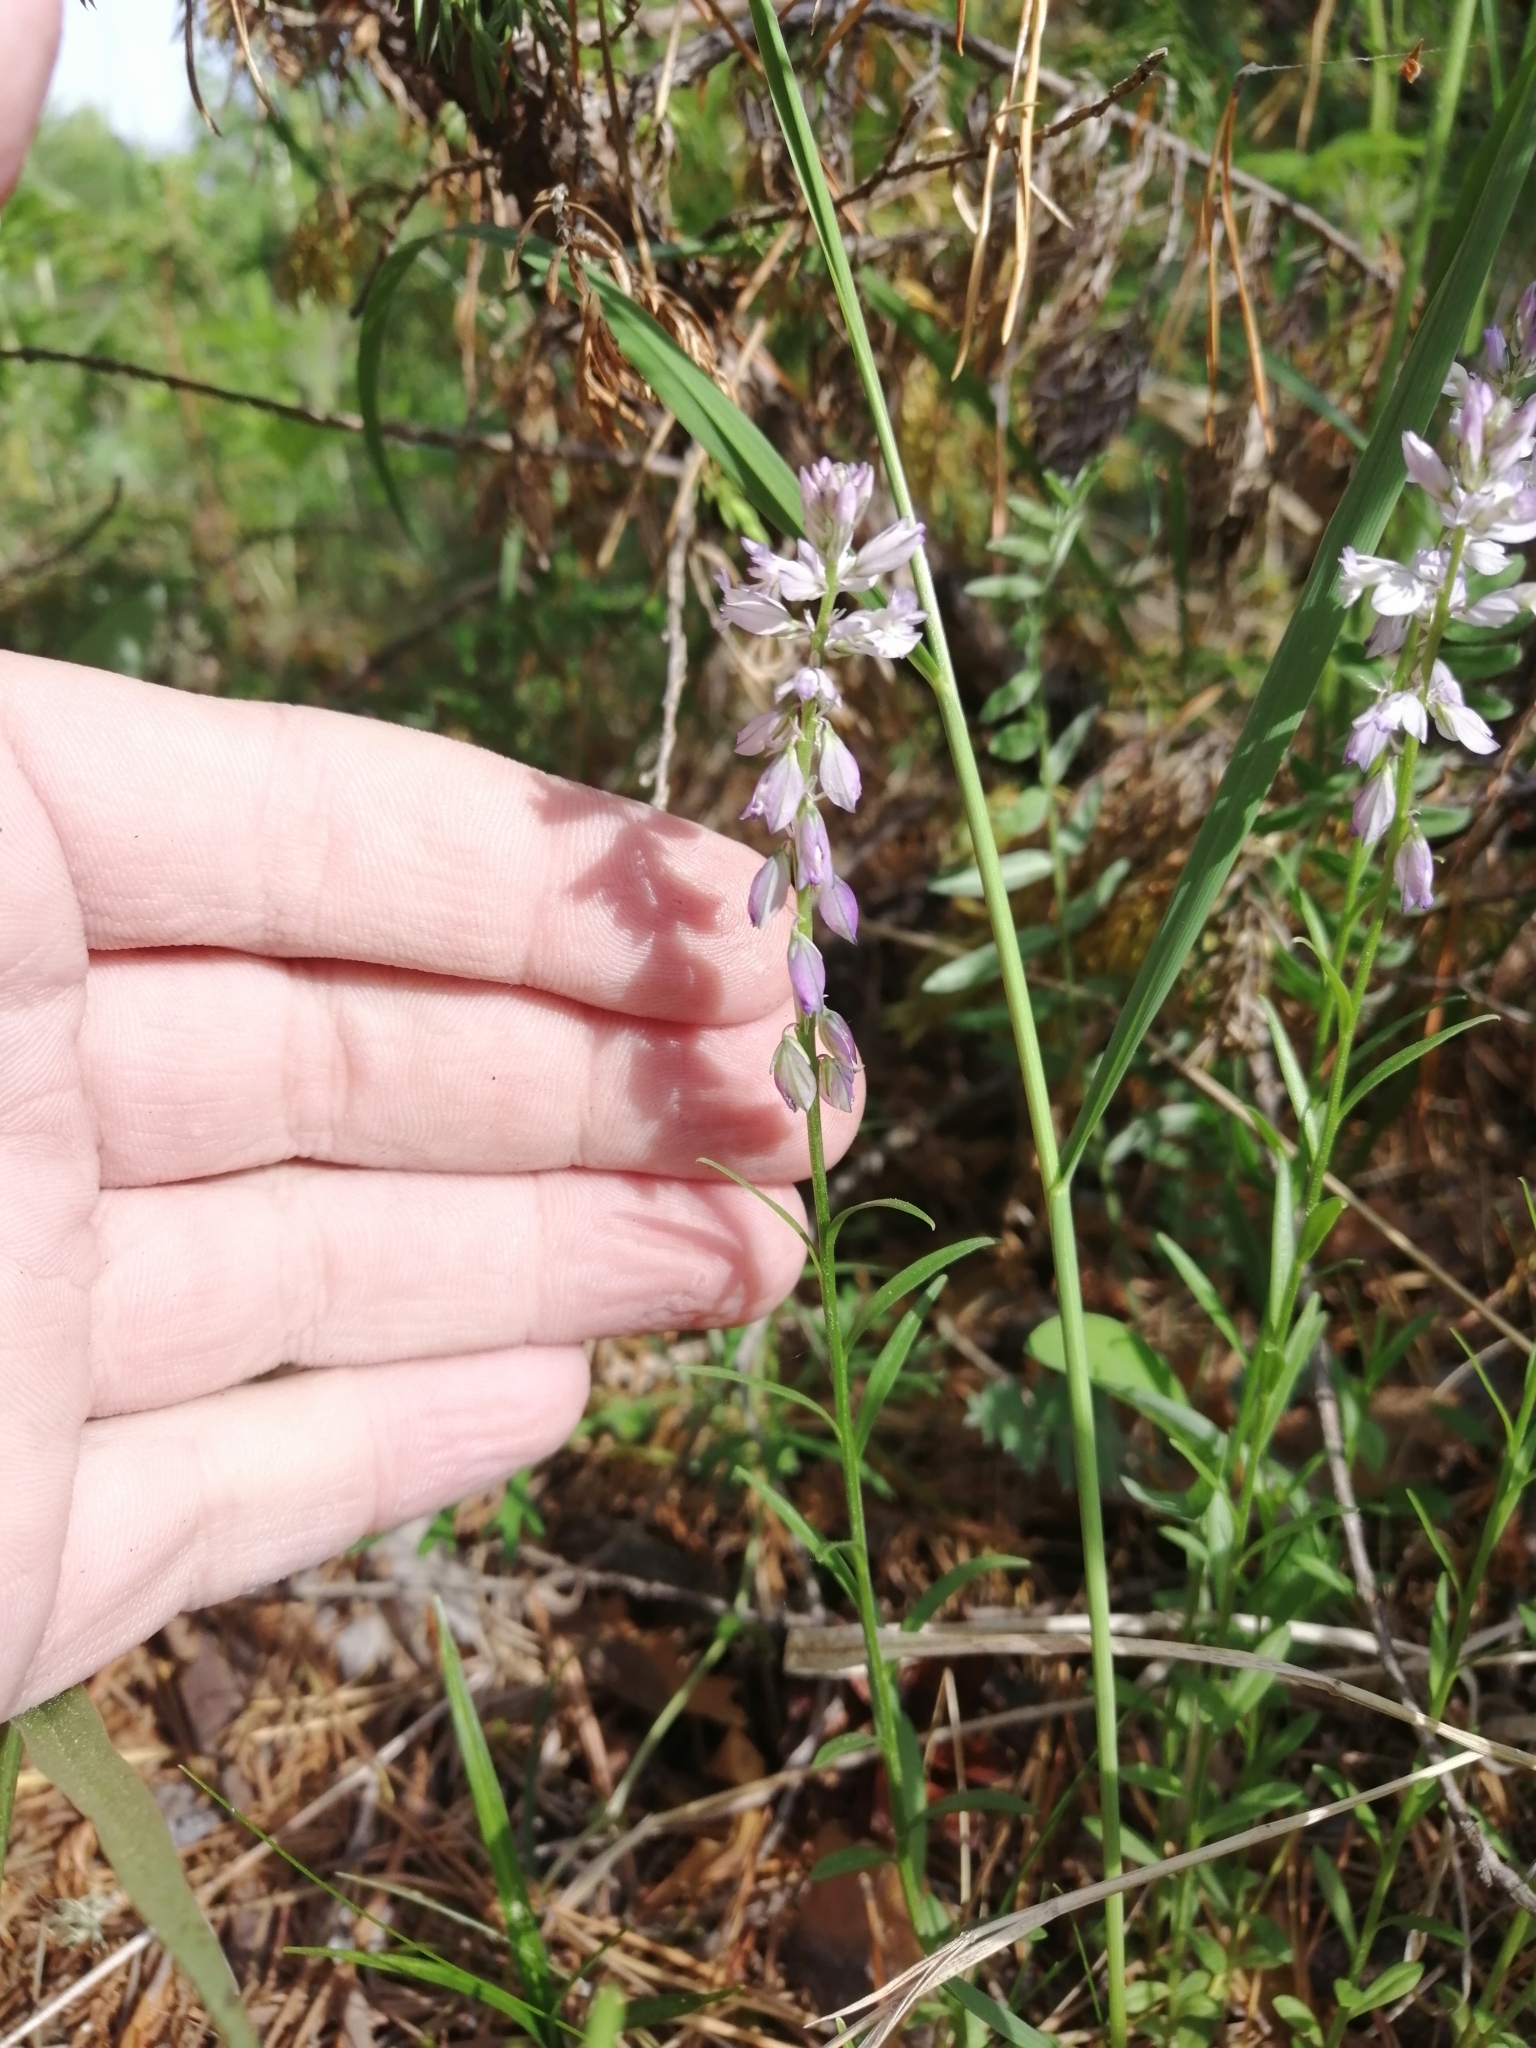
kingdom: Plantae
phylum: Tracheophyta
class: Magnoliopsida
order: Fabales
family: Polygalaceae
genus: Polygala
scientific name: Polygala comosa
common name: Tufted milkwort
